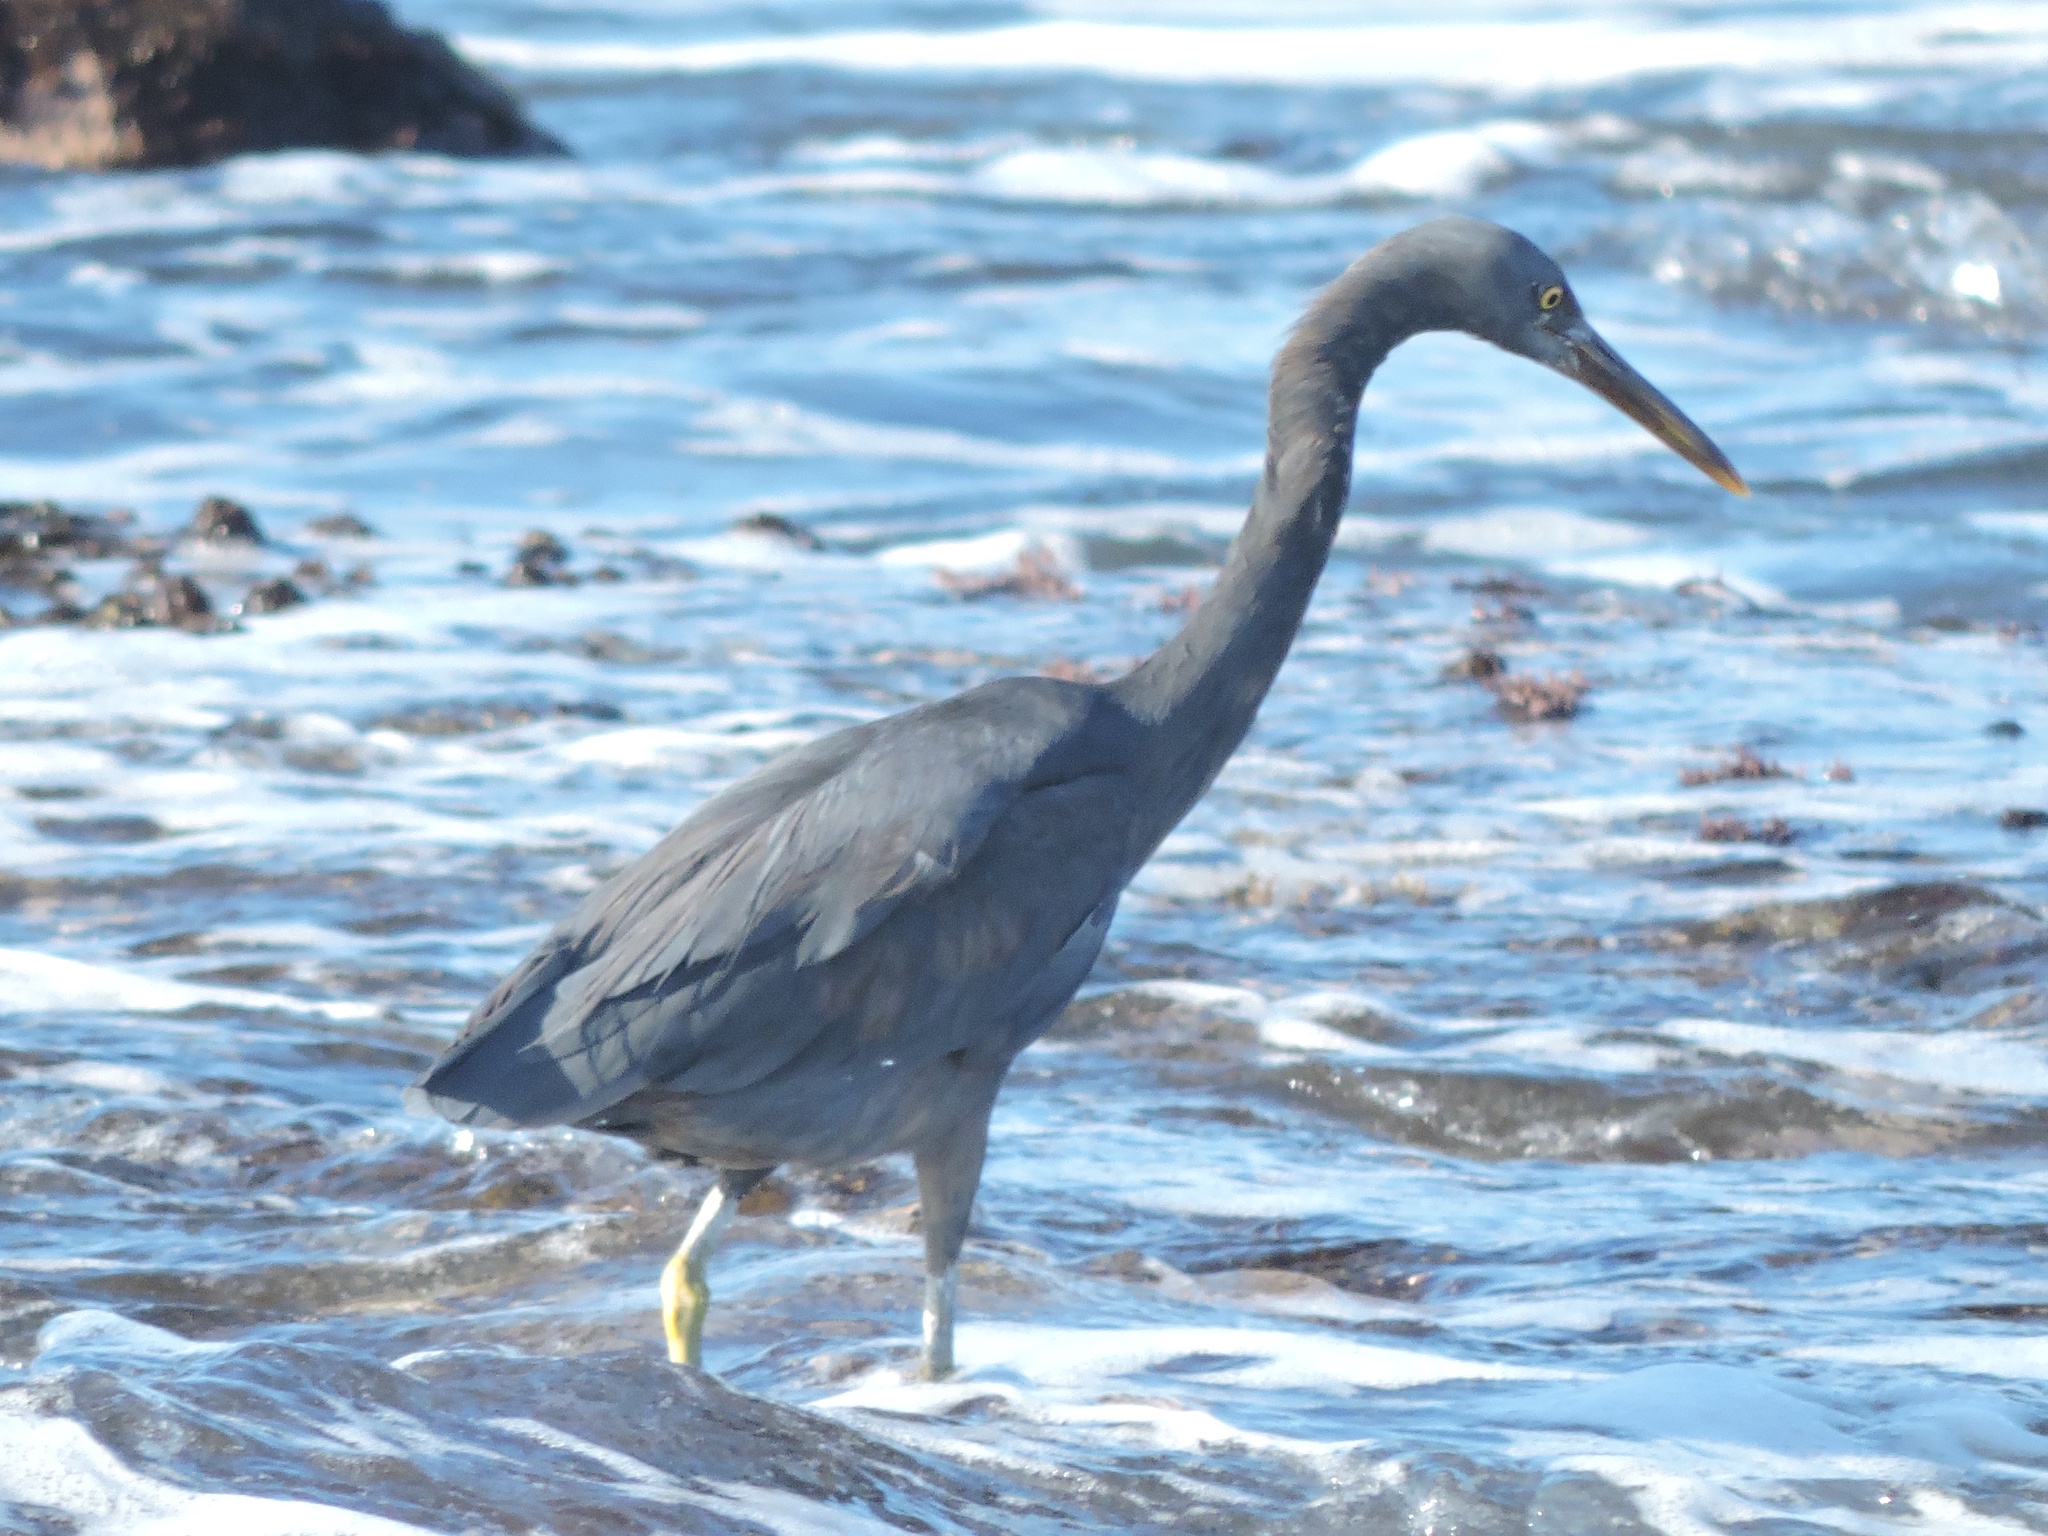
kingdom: Animalia
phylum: Chordata
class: Aves
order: Pelecaniformes
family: Ardeidae
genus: Egretta
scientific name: Egretta sacra
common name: Pacific reef heron
